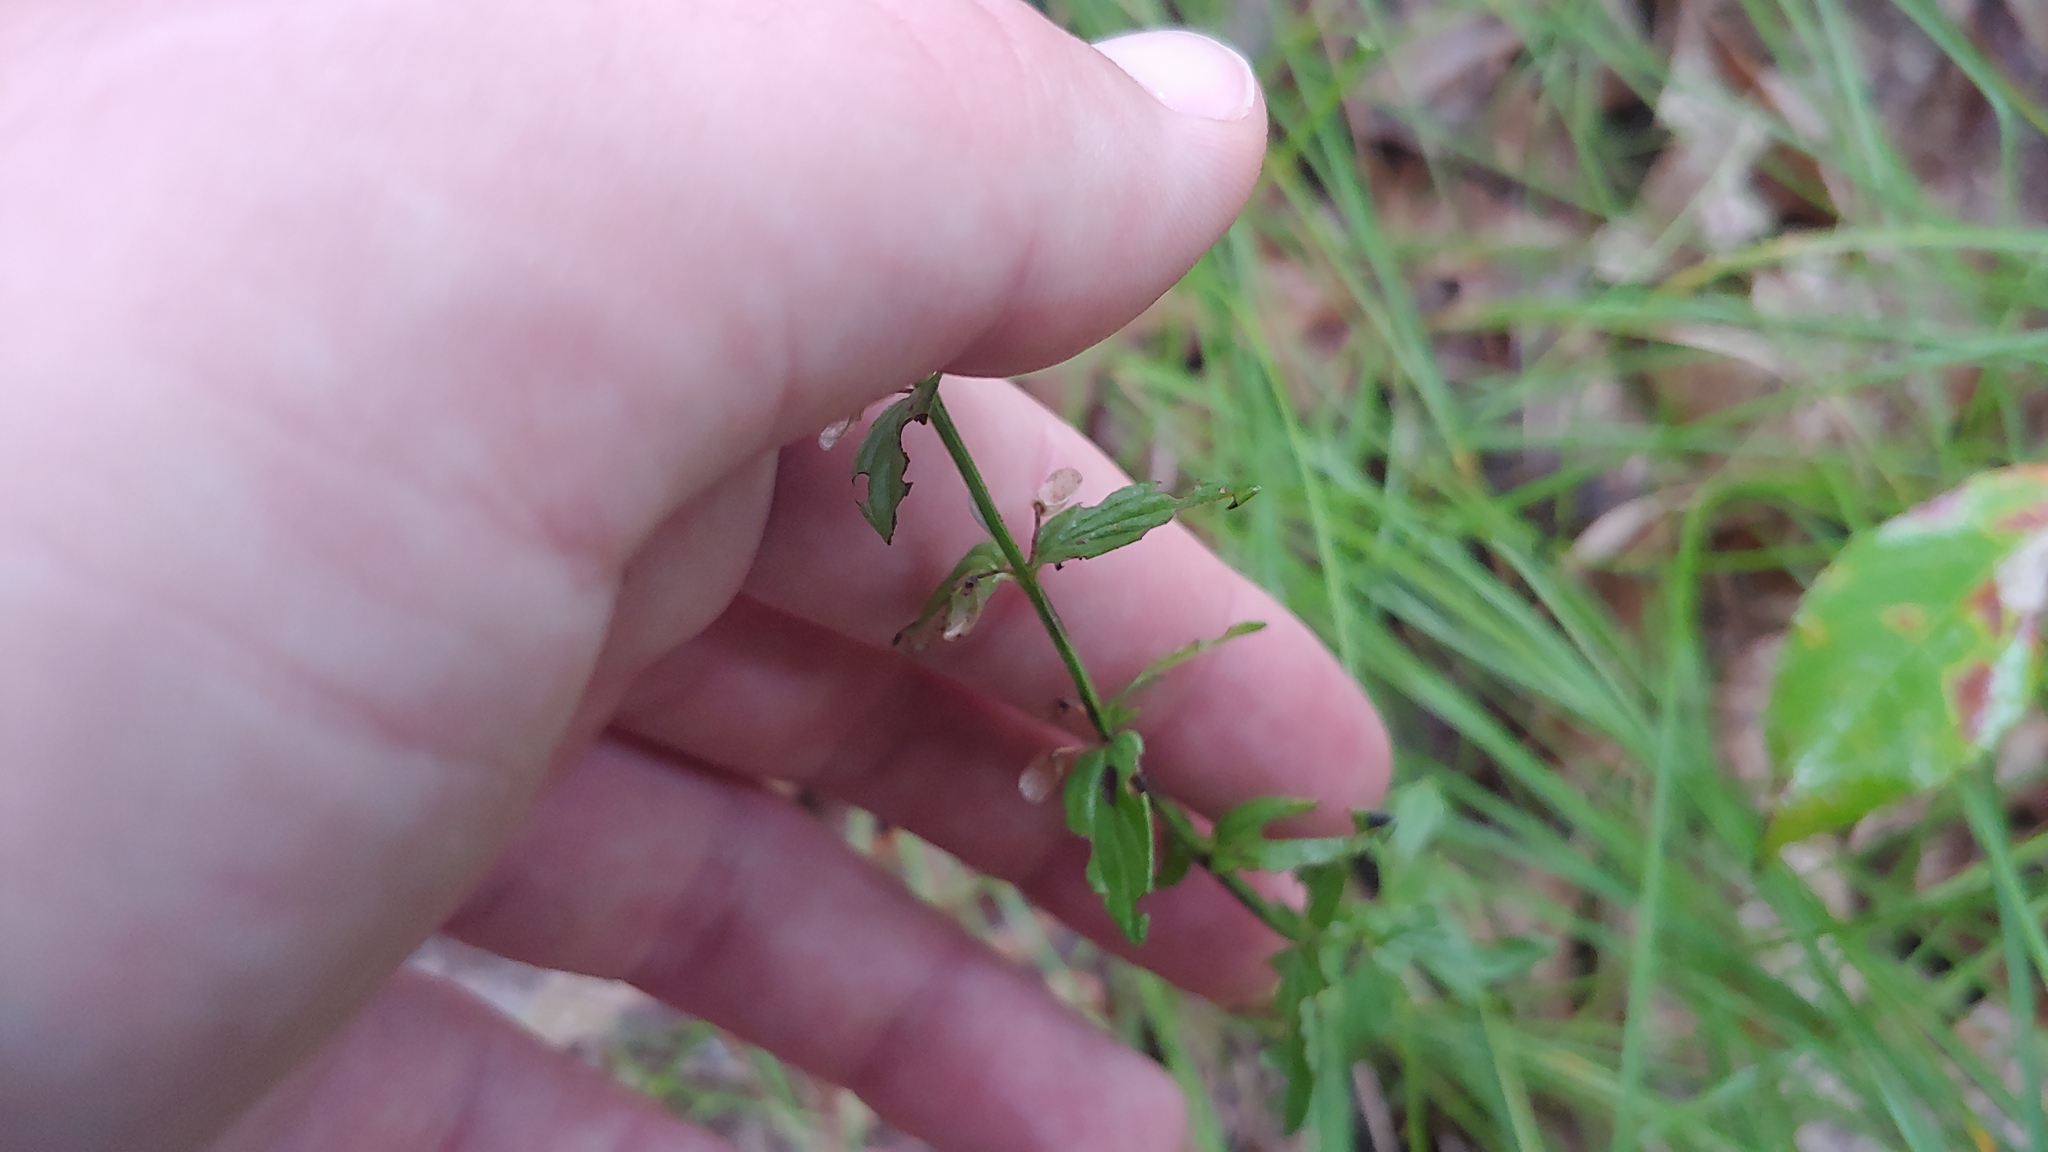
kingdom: Plantae
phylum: Tracheophyta
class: Magnoliopsida
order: Lamiales
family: Lamiaceae
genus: Scutellaria
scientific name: Scutellaria parvula
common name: Little scullcap
